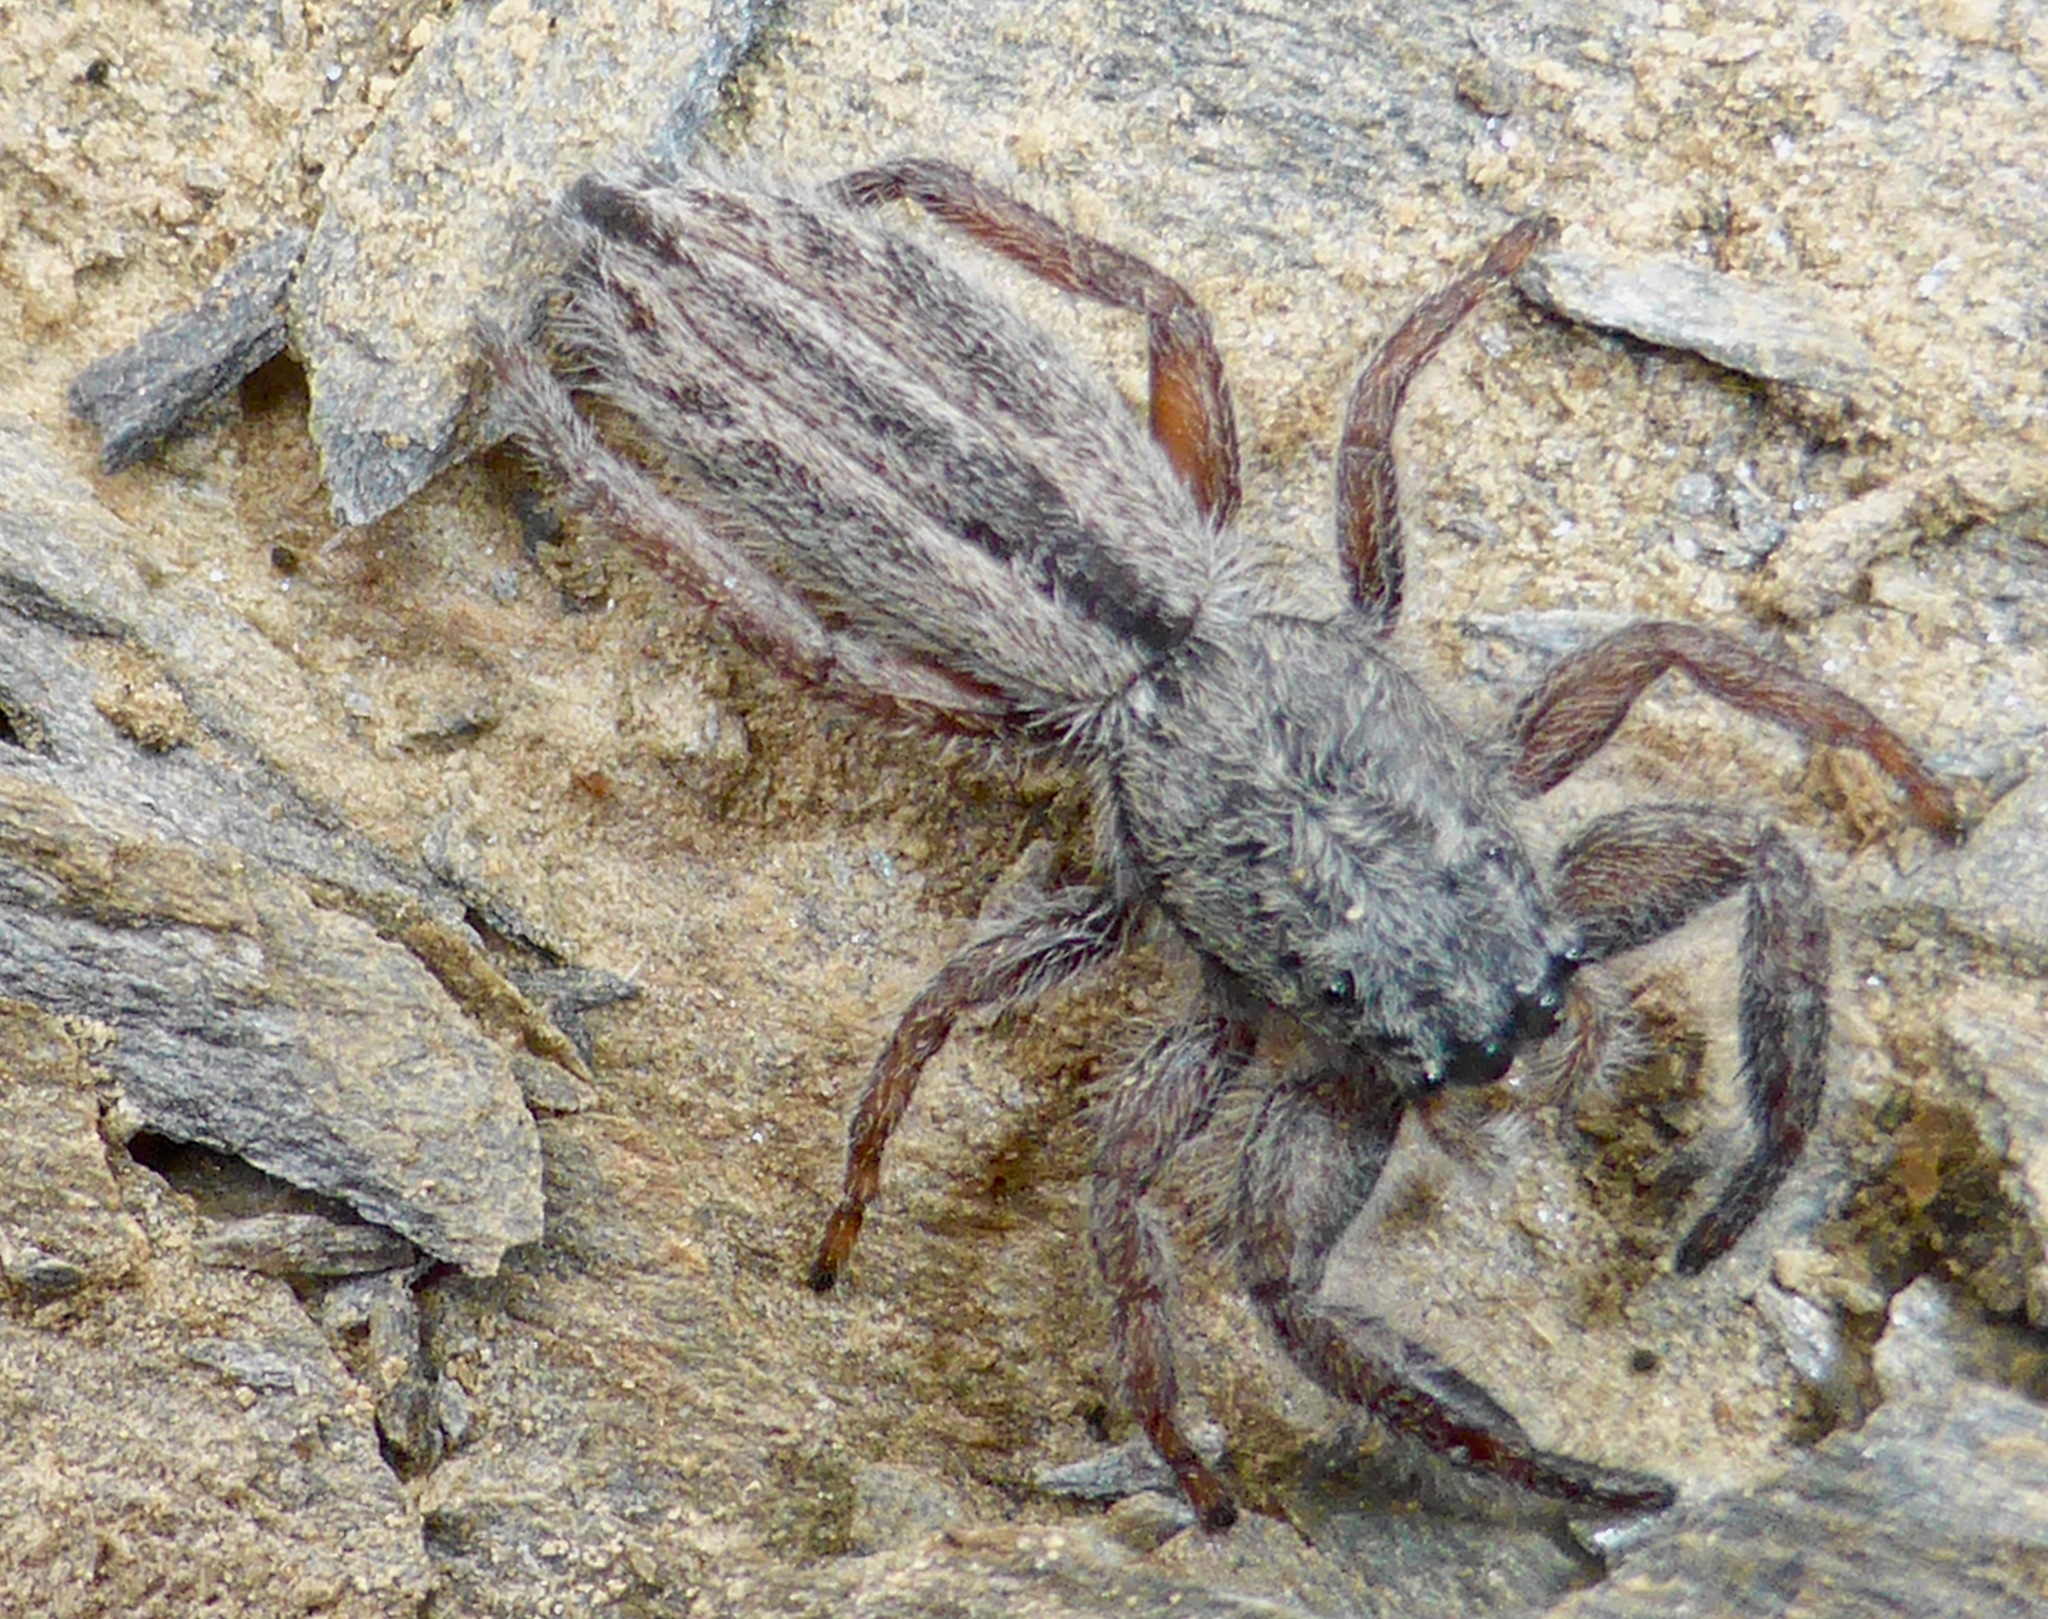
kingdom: Animalia
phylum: Arthropoda
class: Arachnida
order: Araneae
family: Salticidae
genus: Holoplatys
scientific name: Holoplatys apressus
